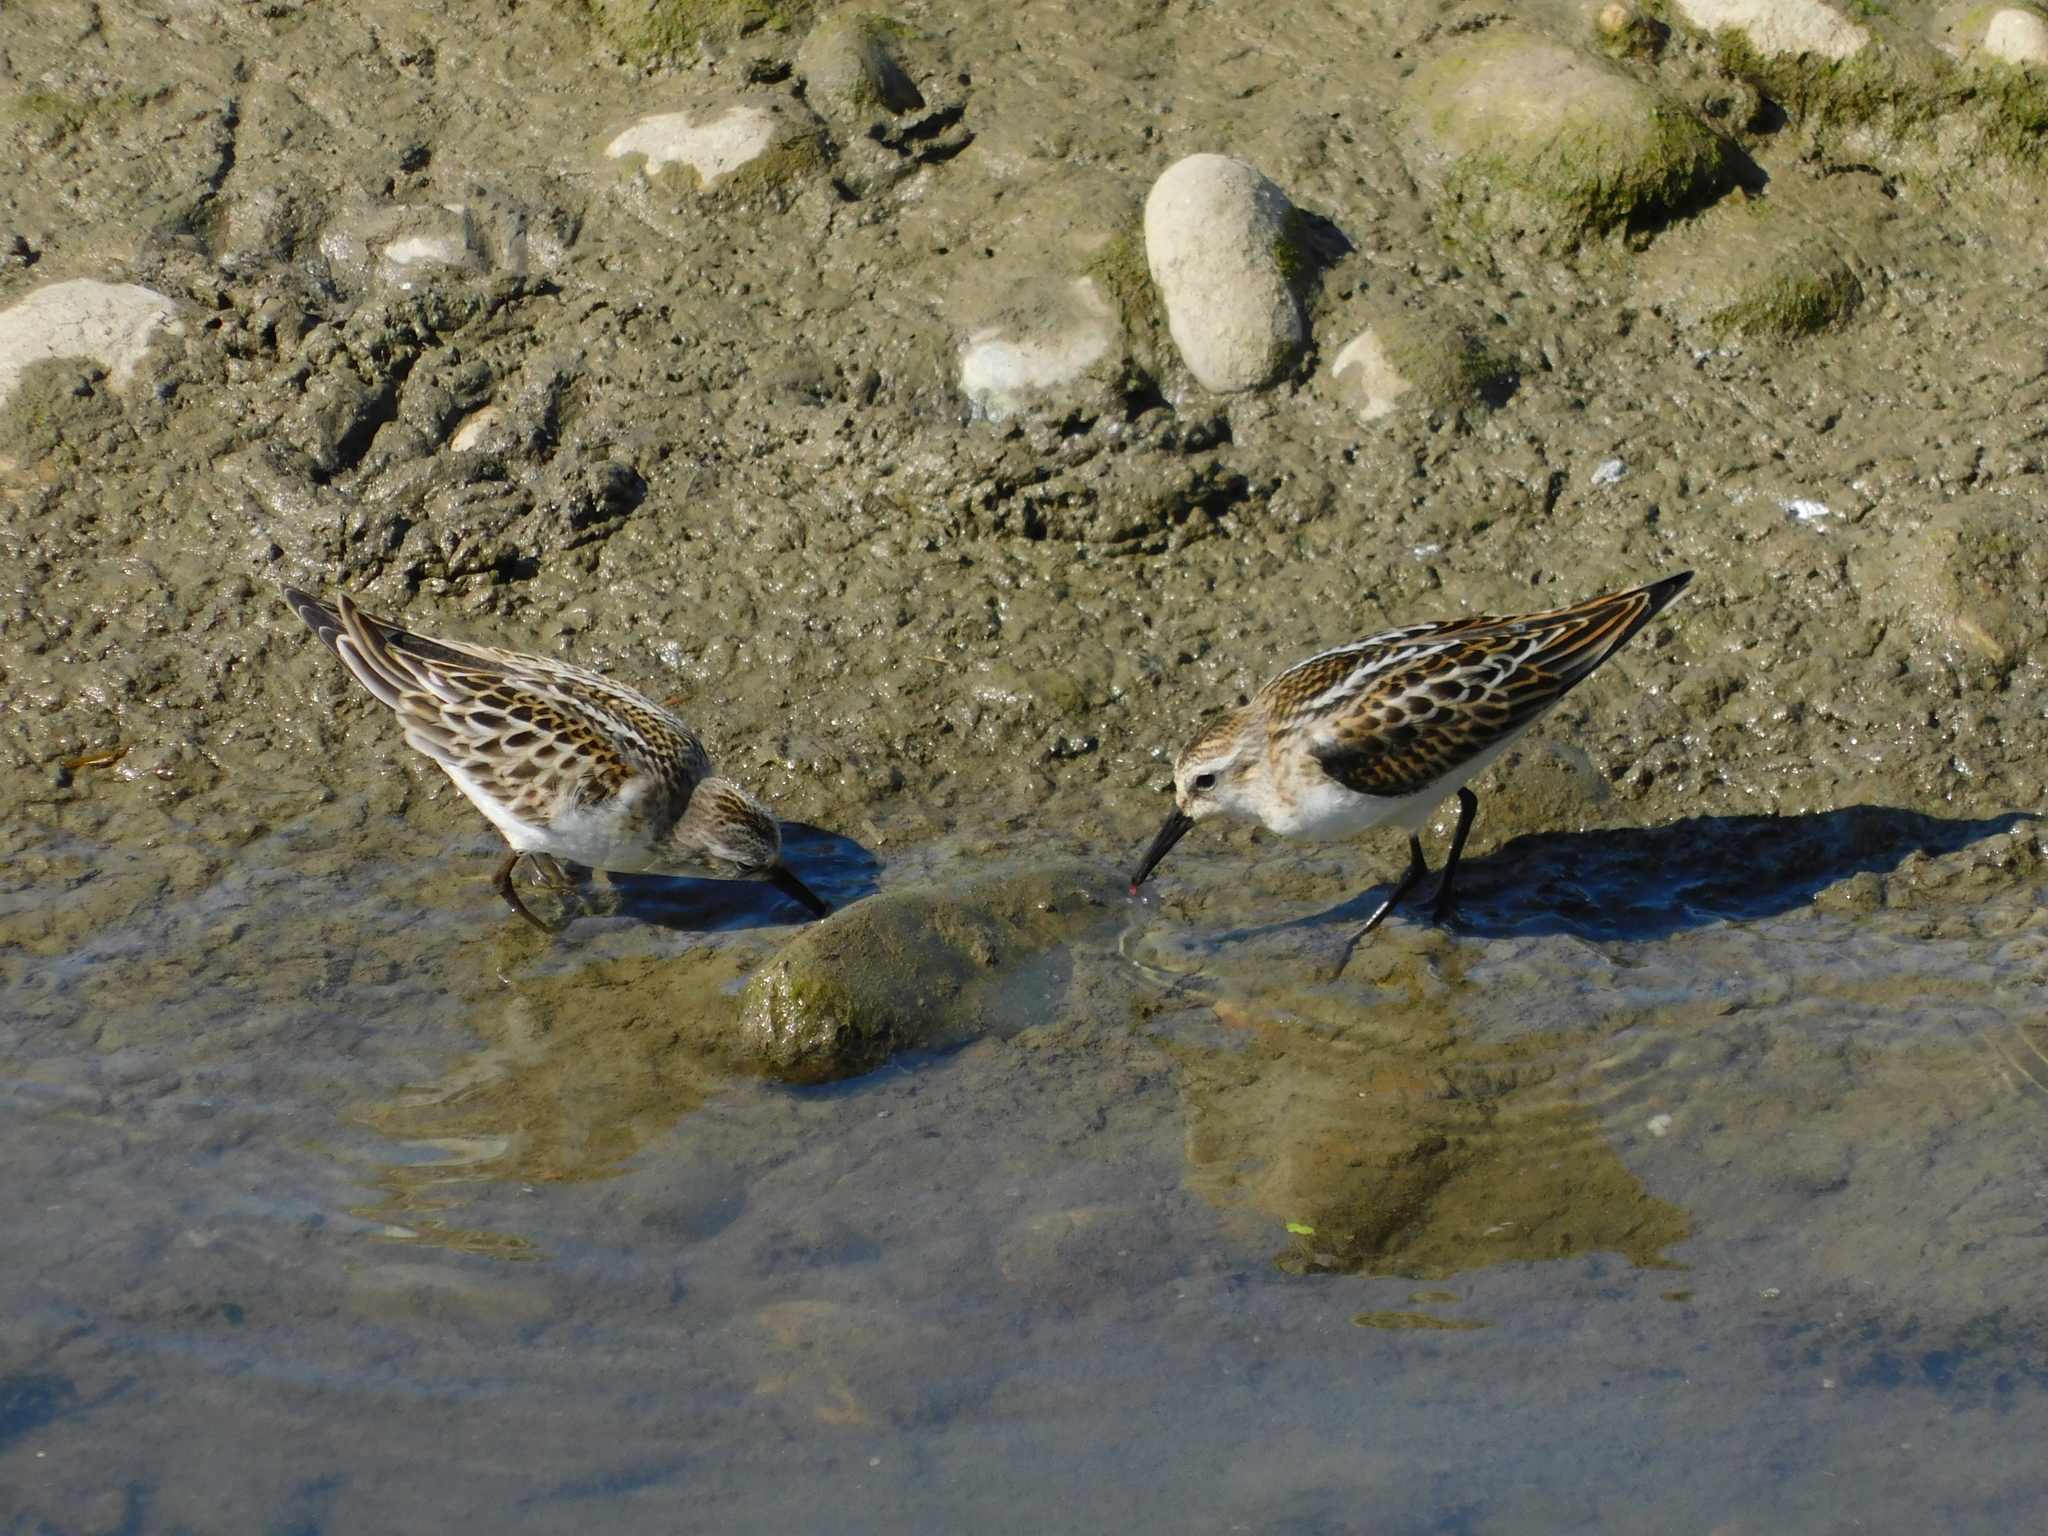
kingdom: Animalia
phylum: Chordata
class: Aves
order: Charadriiformes
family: Scolopacidae
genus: Calidris
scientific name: Calidris minuta
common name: Little stint
